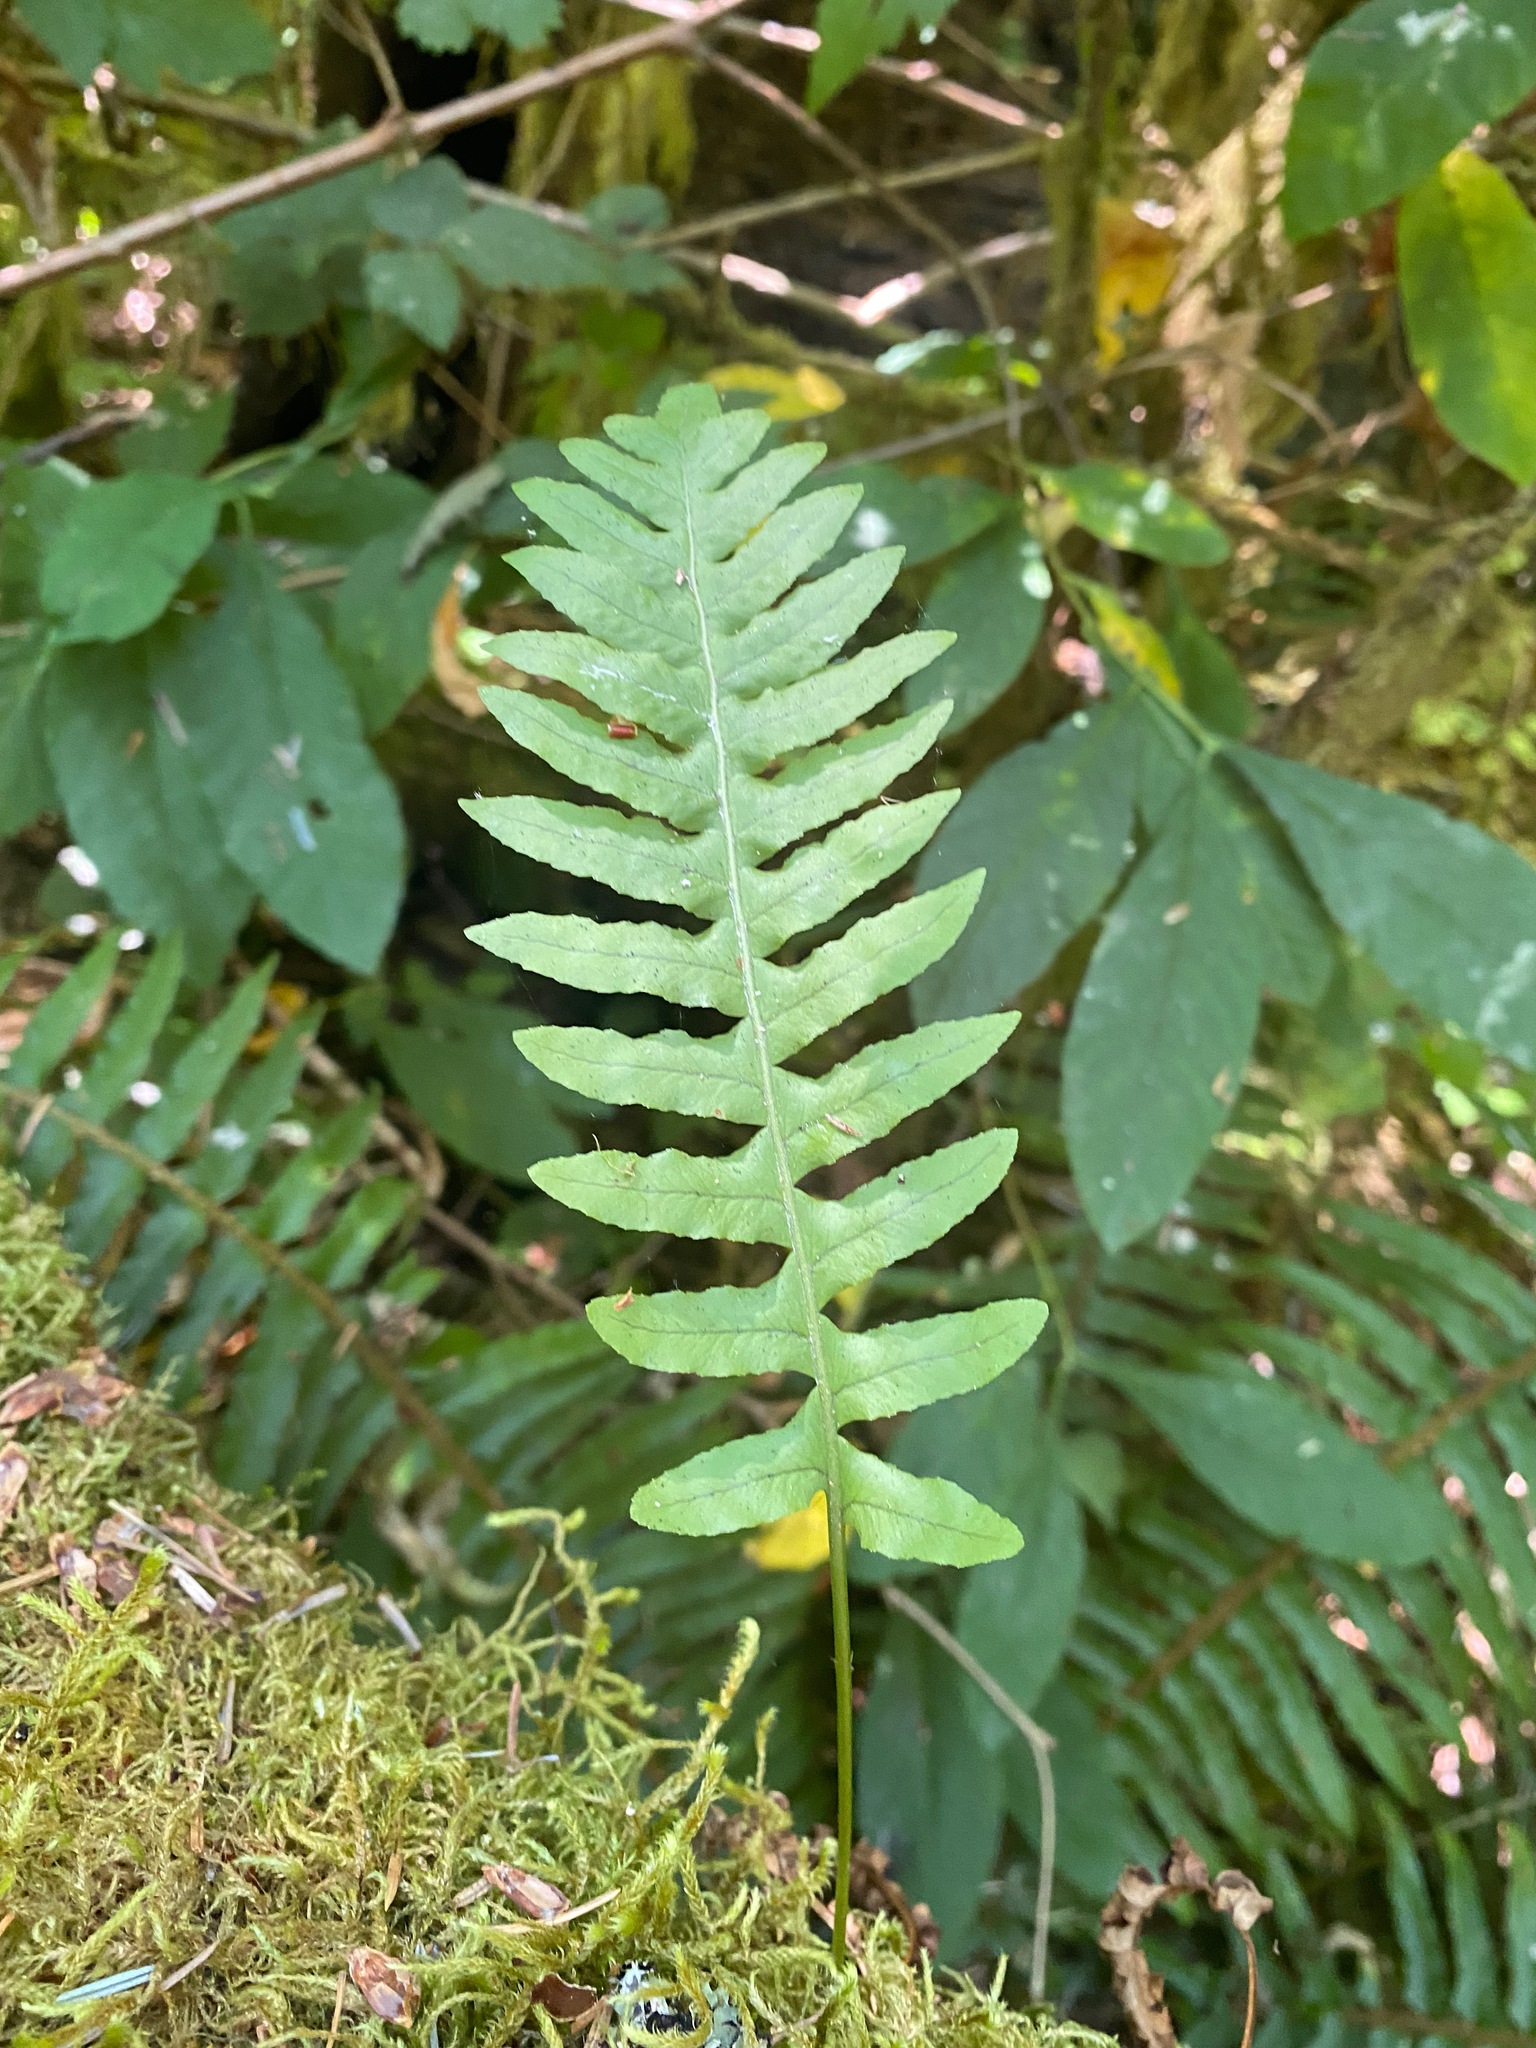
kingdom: Plantae
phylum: Tracheophyta
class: Polypodiopsida
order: Polypodiales
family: Polypodiaceae
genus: Polypodium
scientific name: Polypodium glycyrrhiza
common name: Licorice fern
